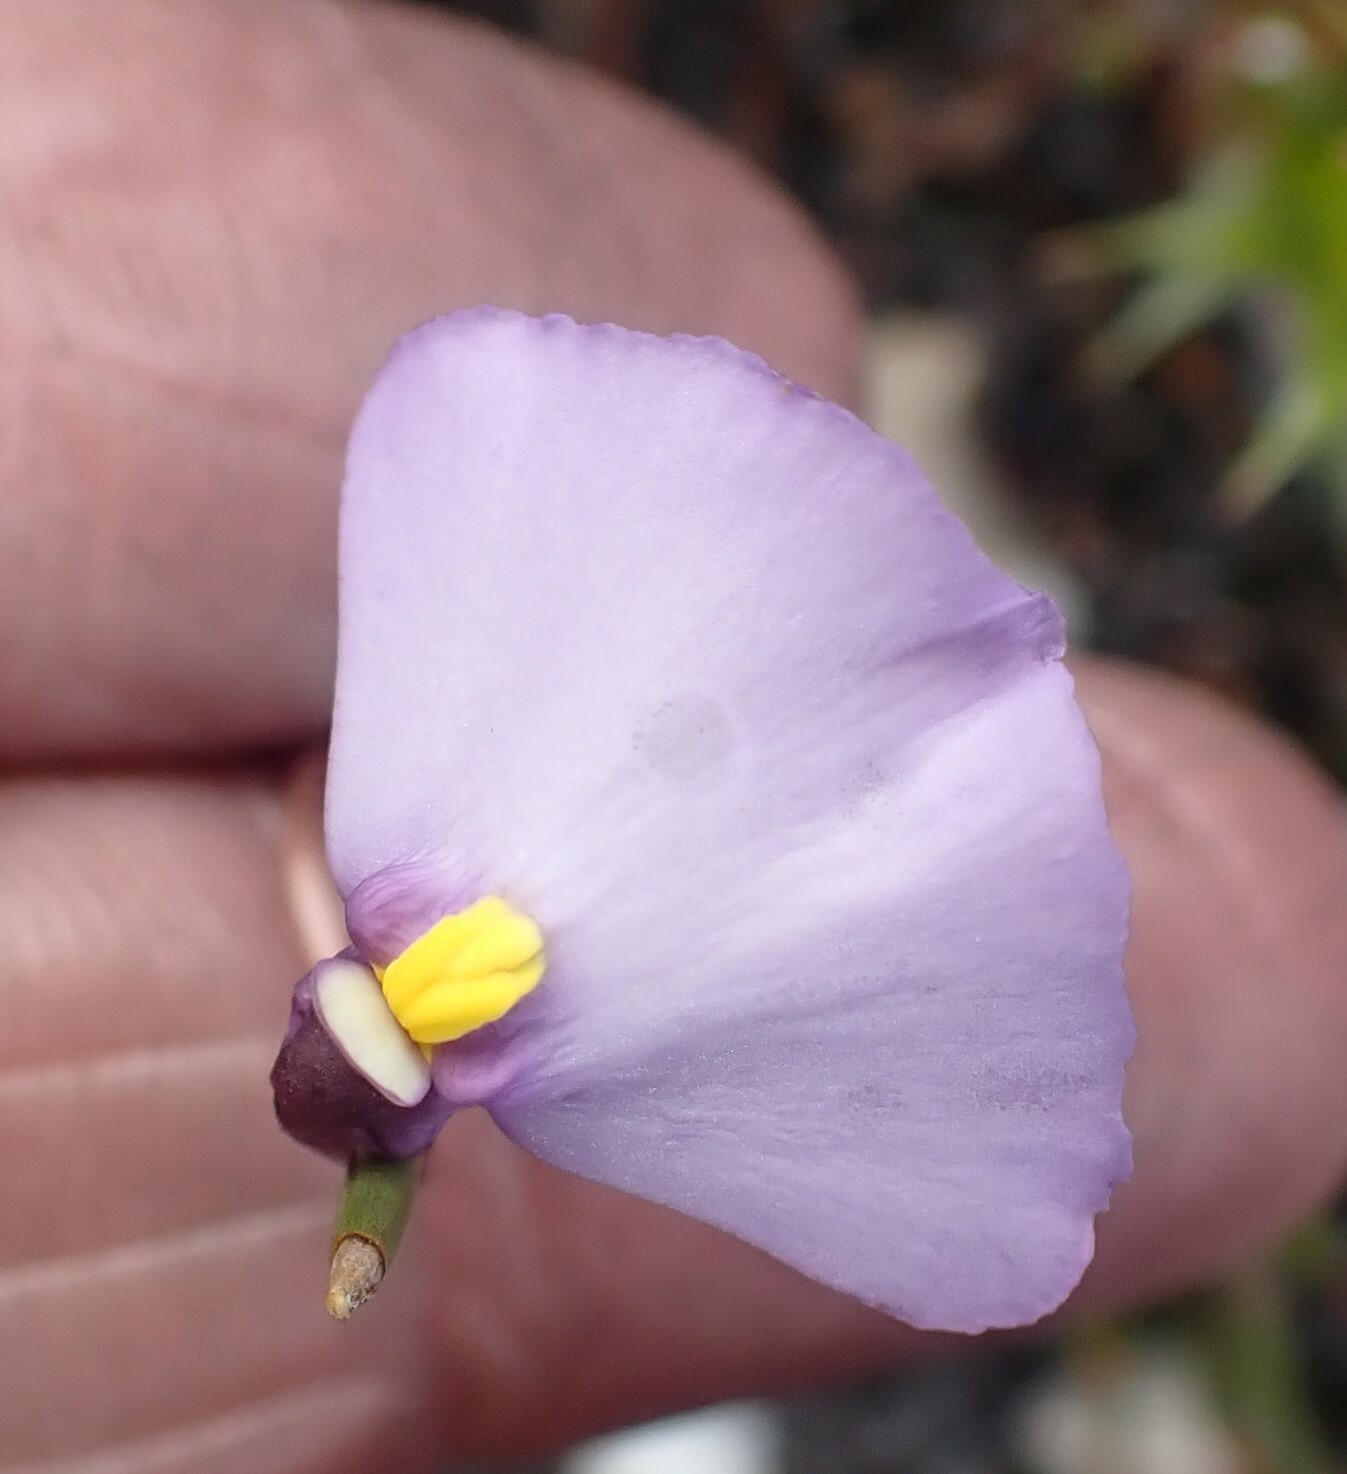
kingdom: Plantae
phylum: Tracheophyta
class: Magnoliopsida
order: Lamiales
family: Lentibulariaceae
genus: Utricularia
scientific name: Utricularia barkeri
